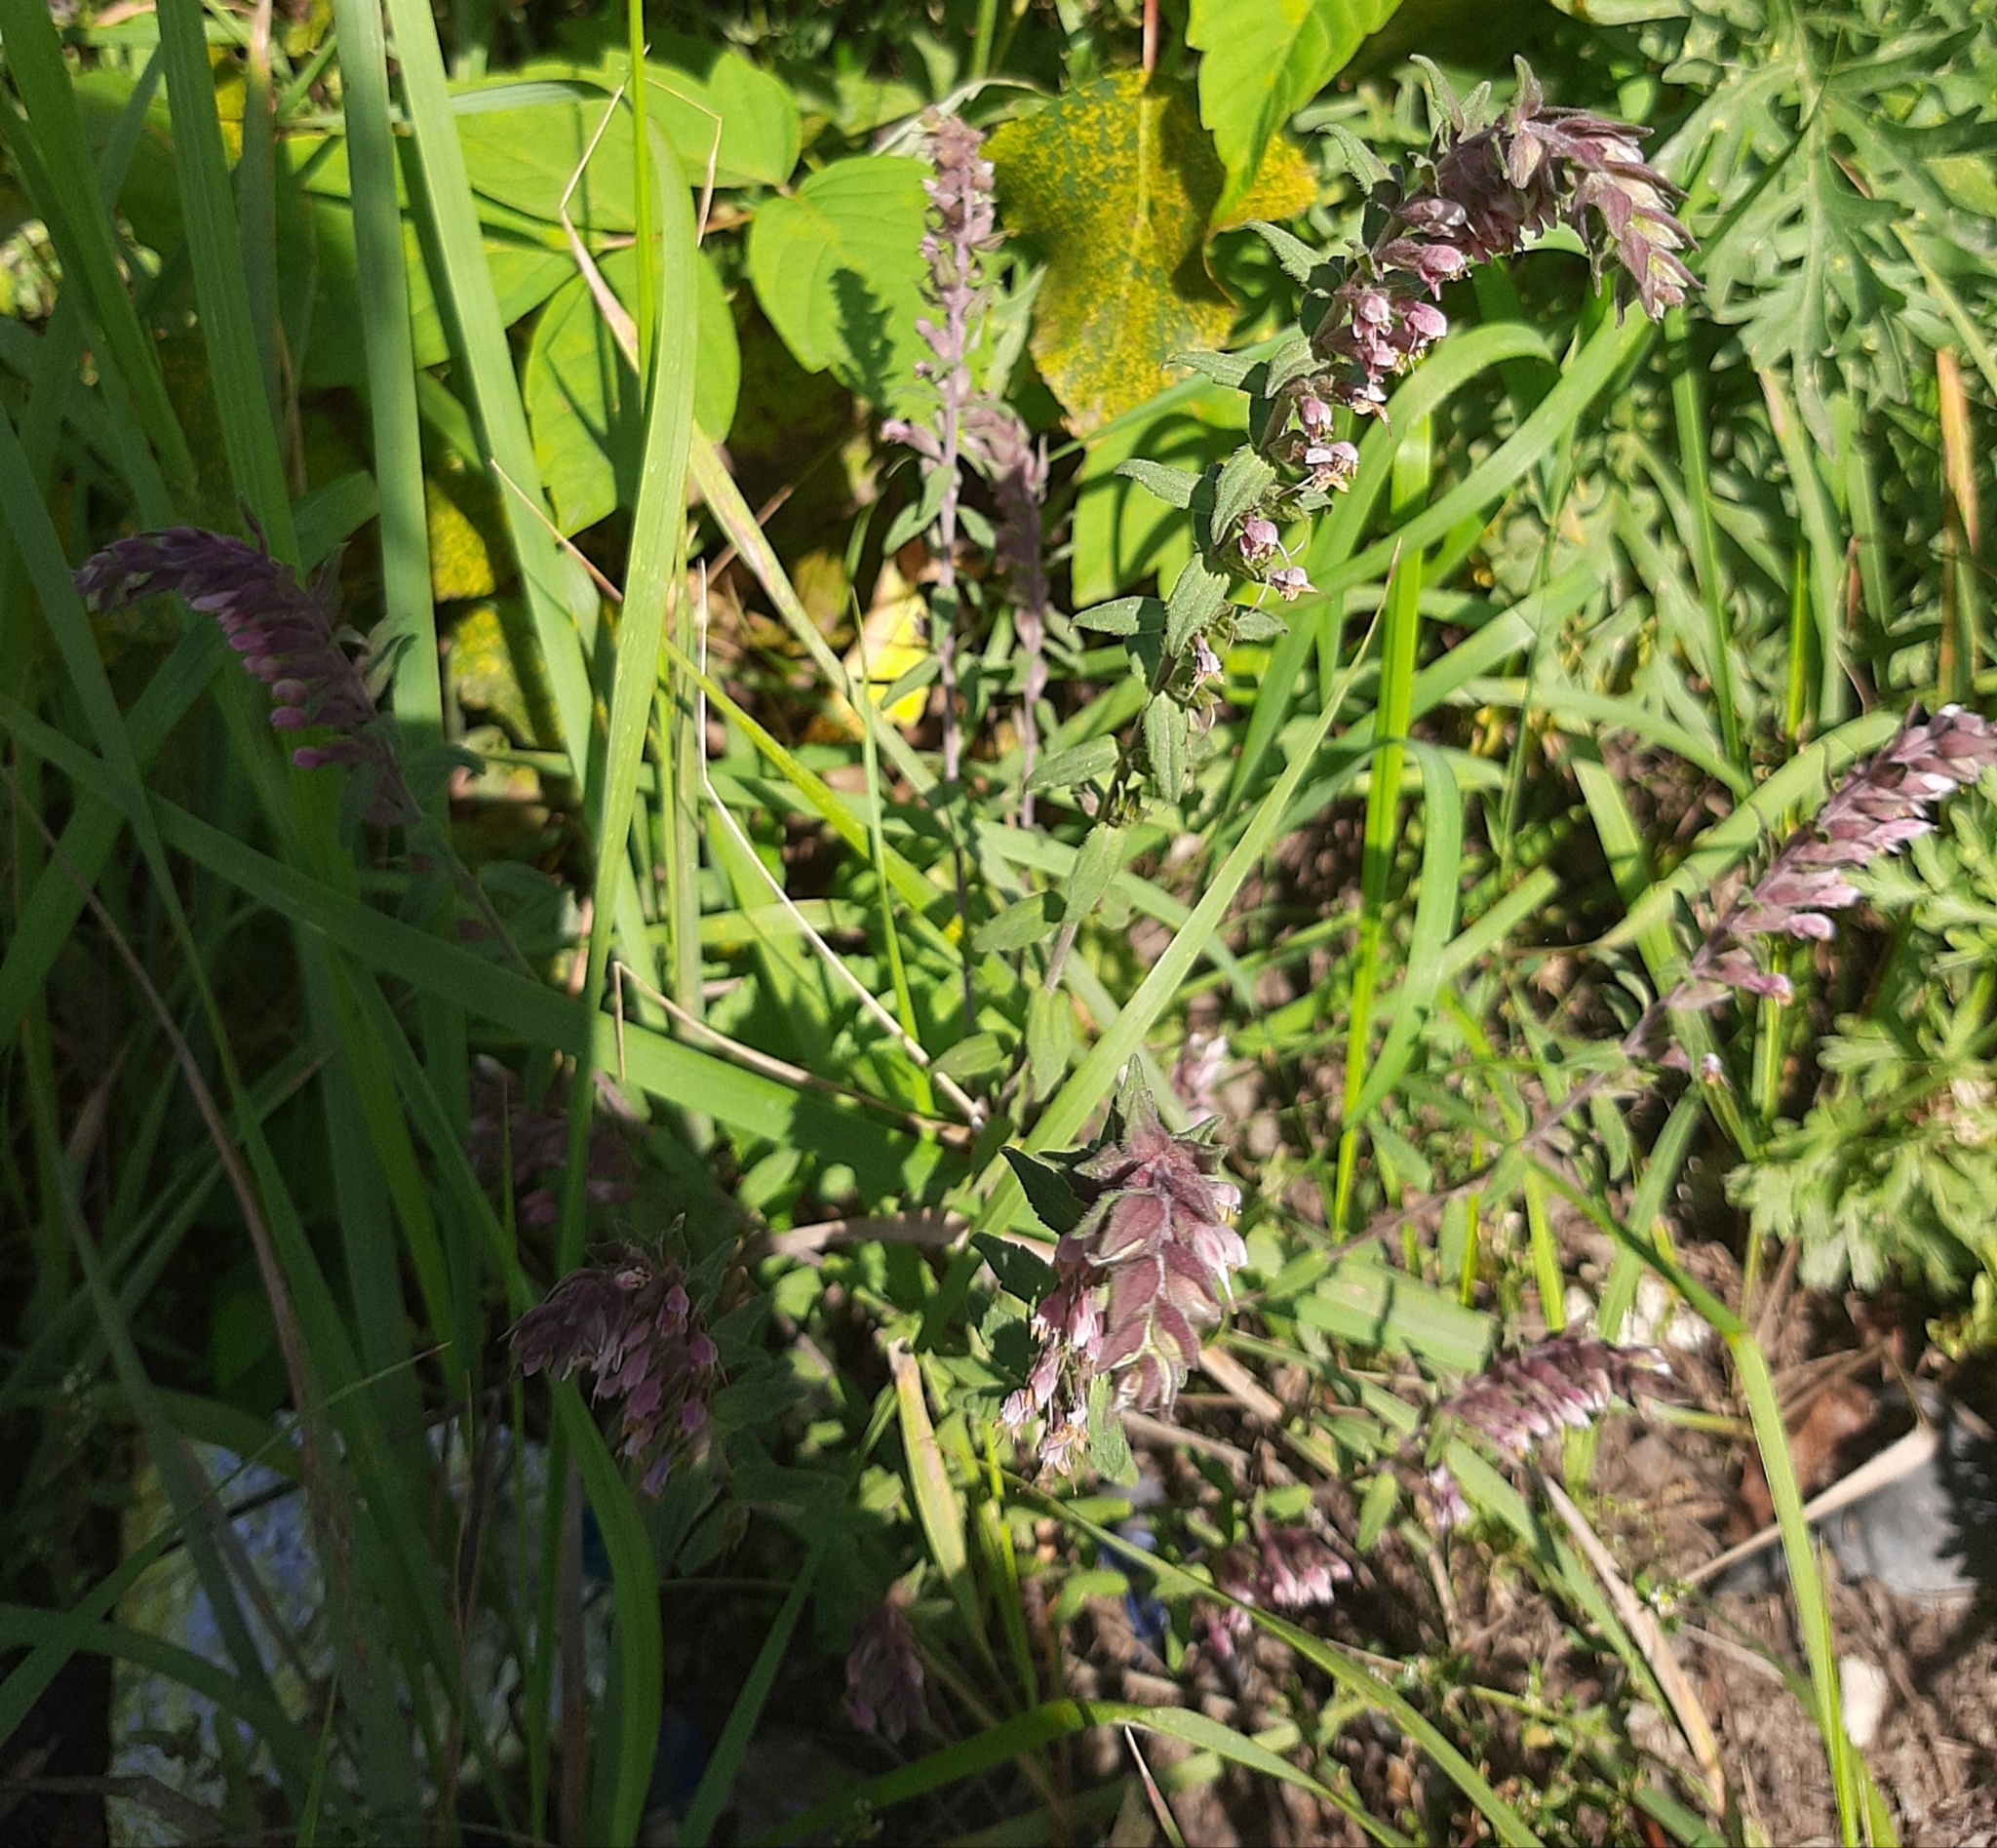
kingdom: Plantae
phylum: Tracheophyta
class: Magnoliopsida
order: Lamiales
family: Orobanchaceae
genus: Odontites
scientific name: Odontites vulgaris
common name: Broomrape
